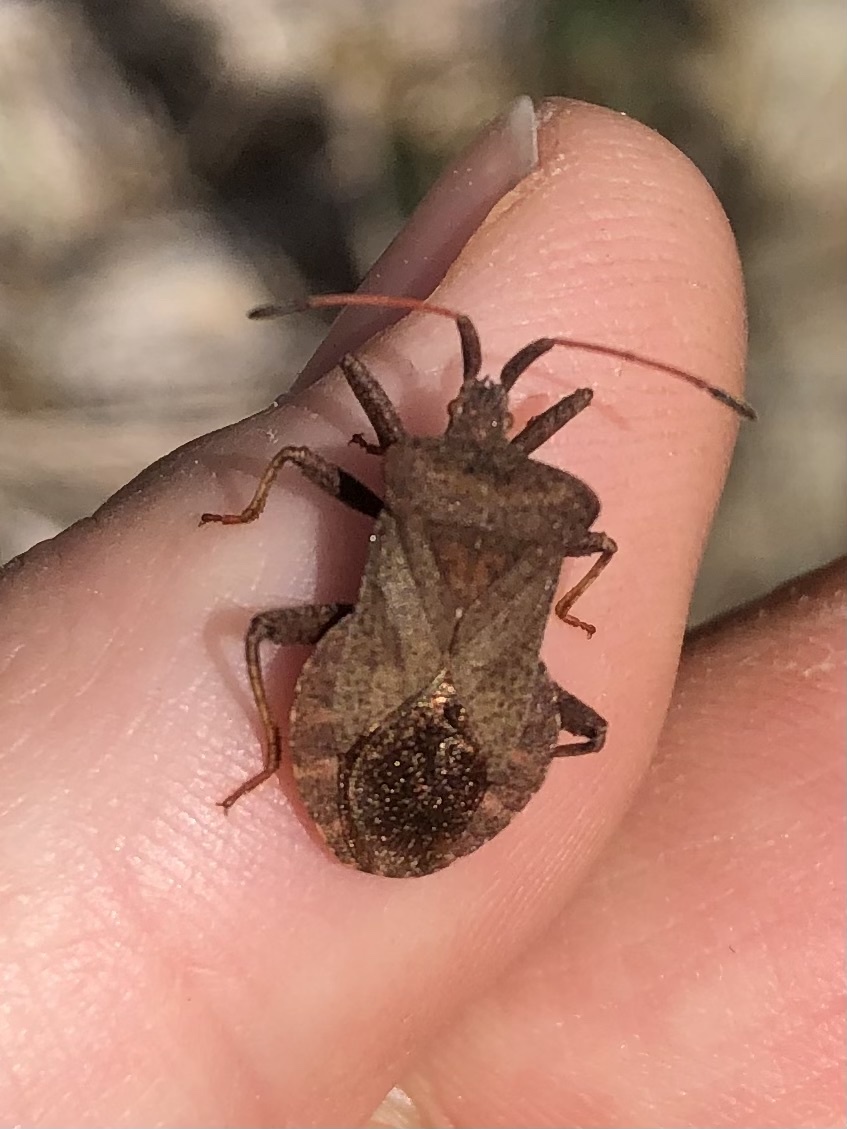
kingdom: Animalia
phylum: Arthropoda
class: Insecta
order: Hemiptera
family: Coreidae
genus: Coreus
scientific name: Coreus marginatus
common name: Dock bug
